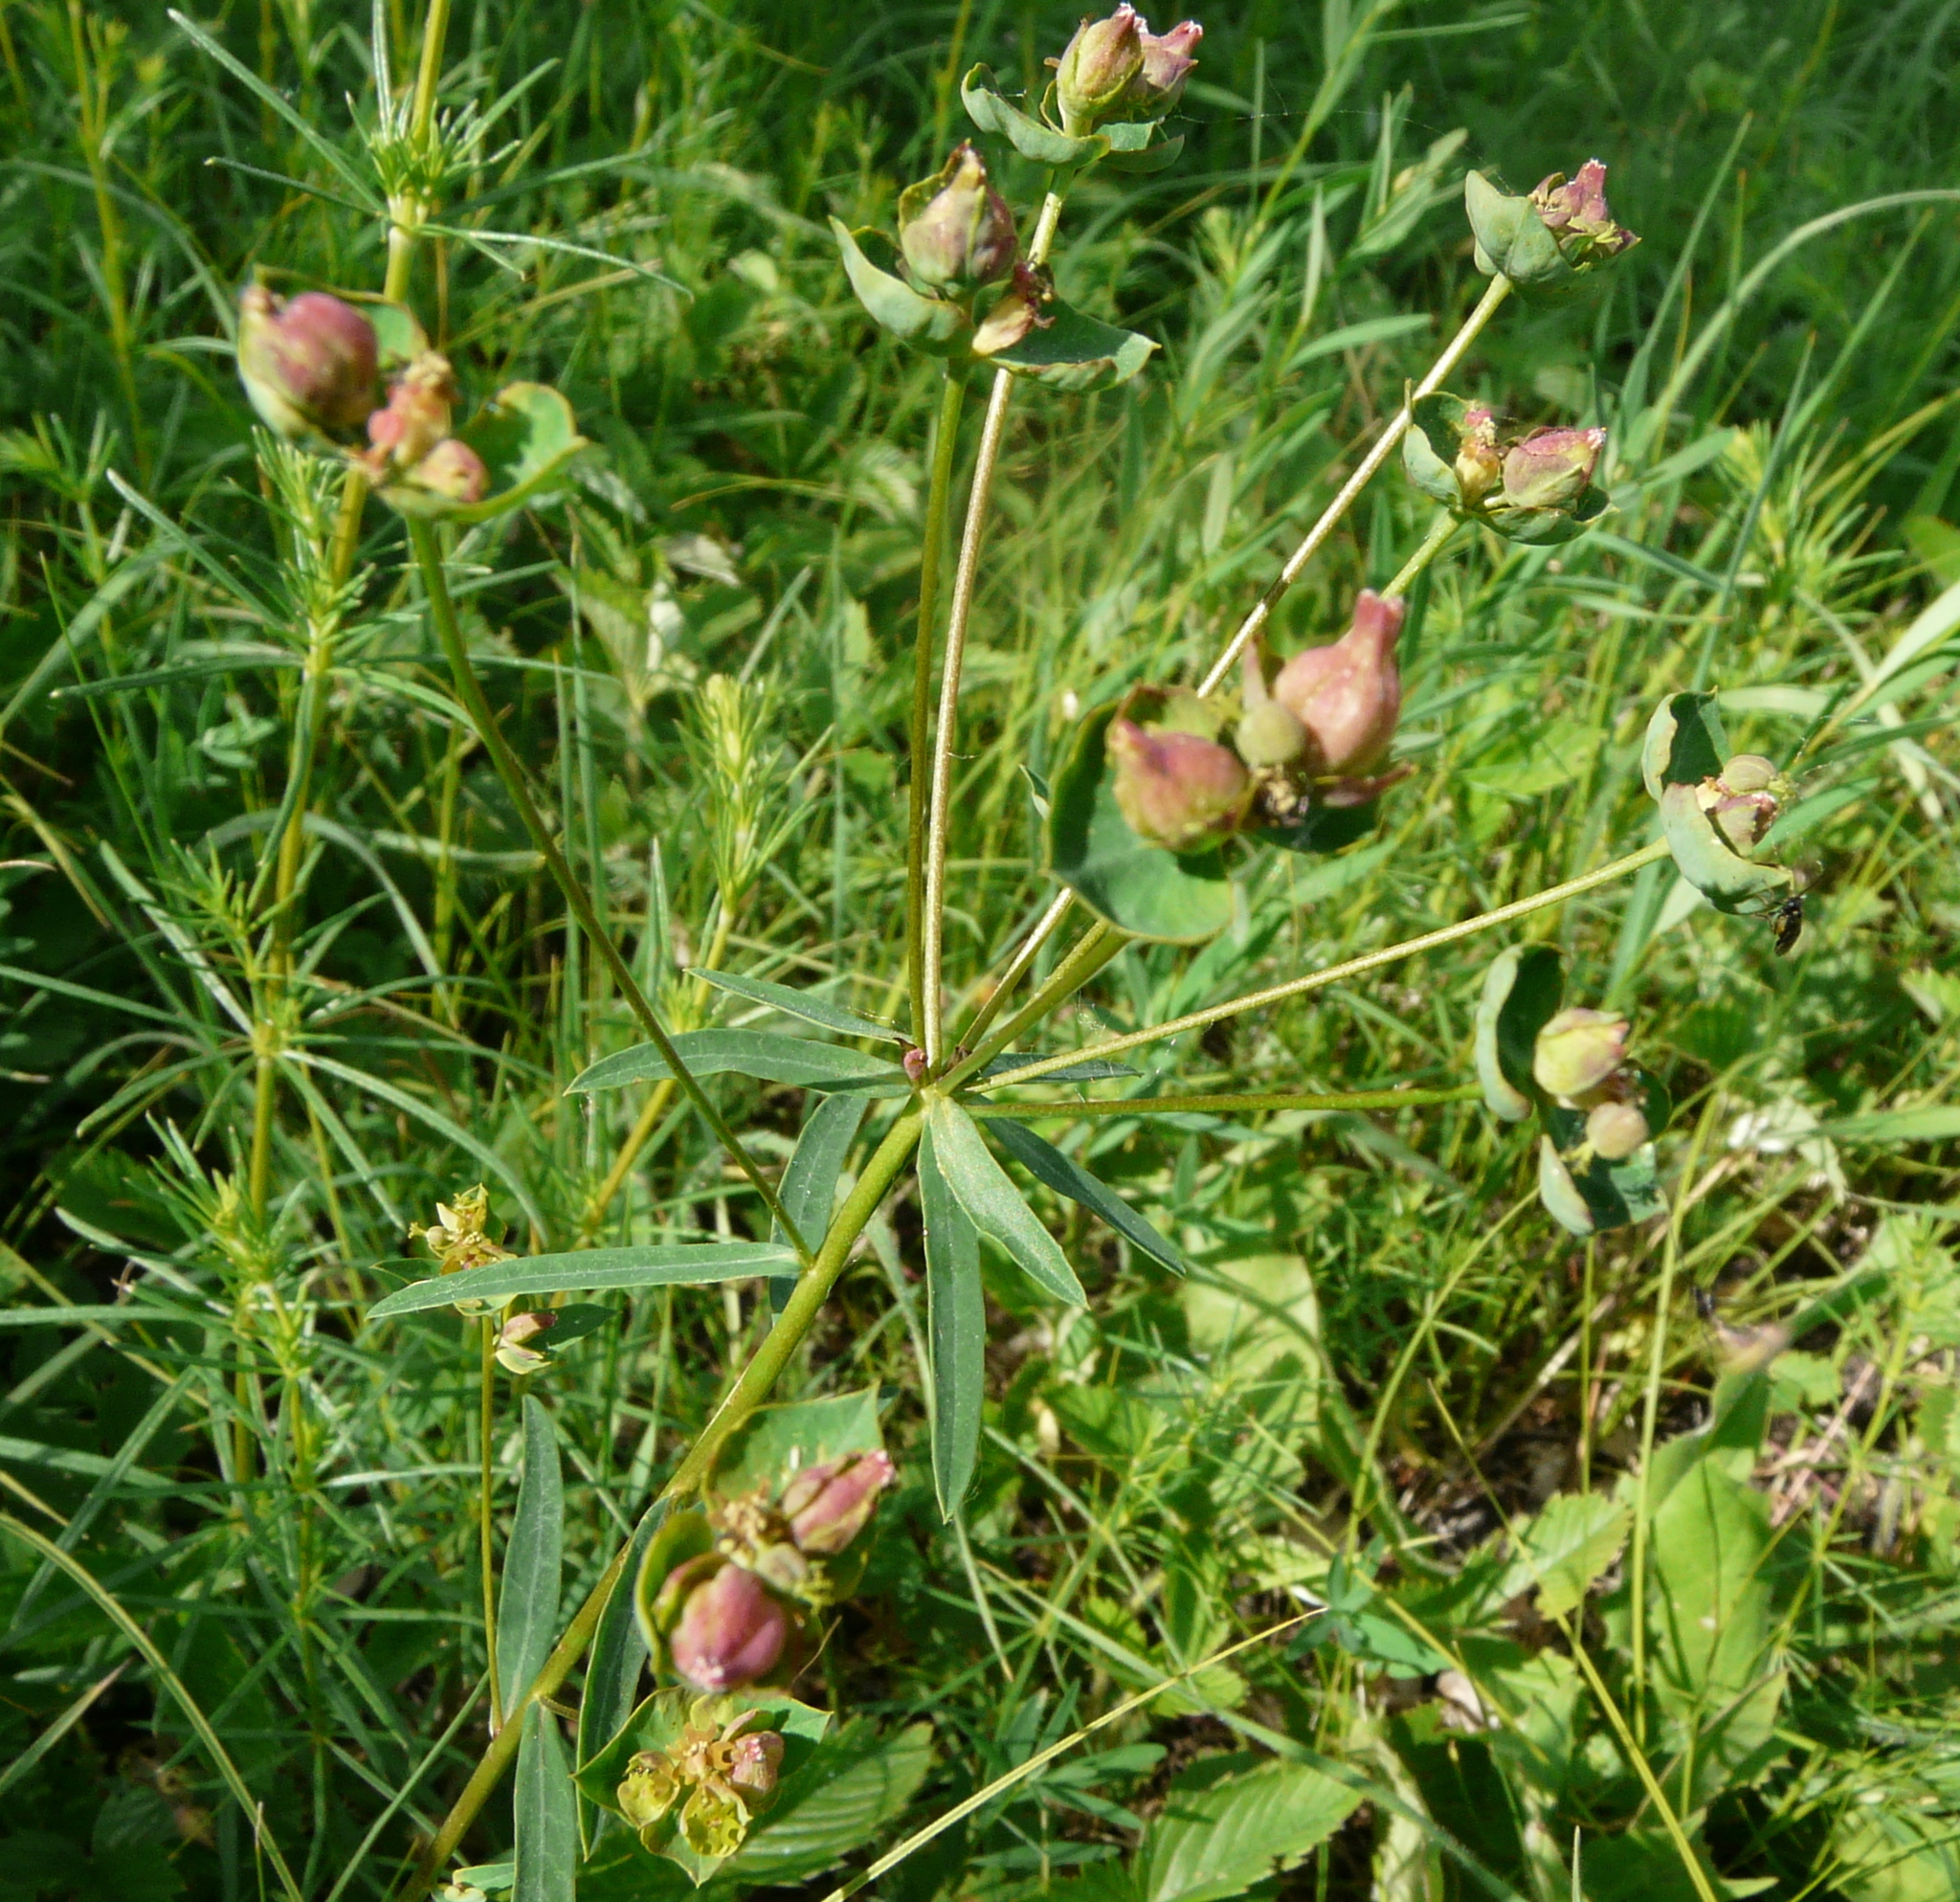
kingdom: Plantae
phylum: Tracheophyta
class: Magnoliopsida
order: Malpighiales
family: Euphorbiaceae
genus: Euphorbia
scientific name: Euphorbia microcarpa
